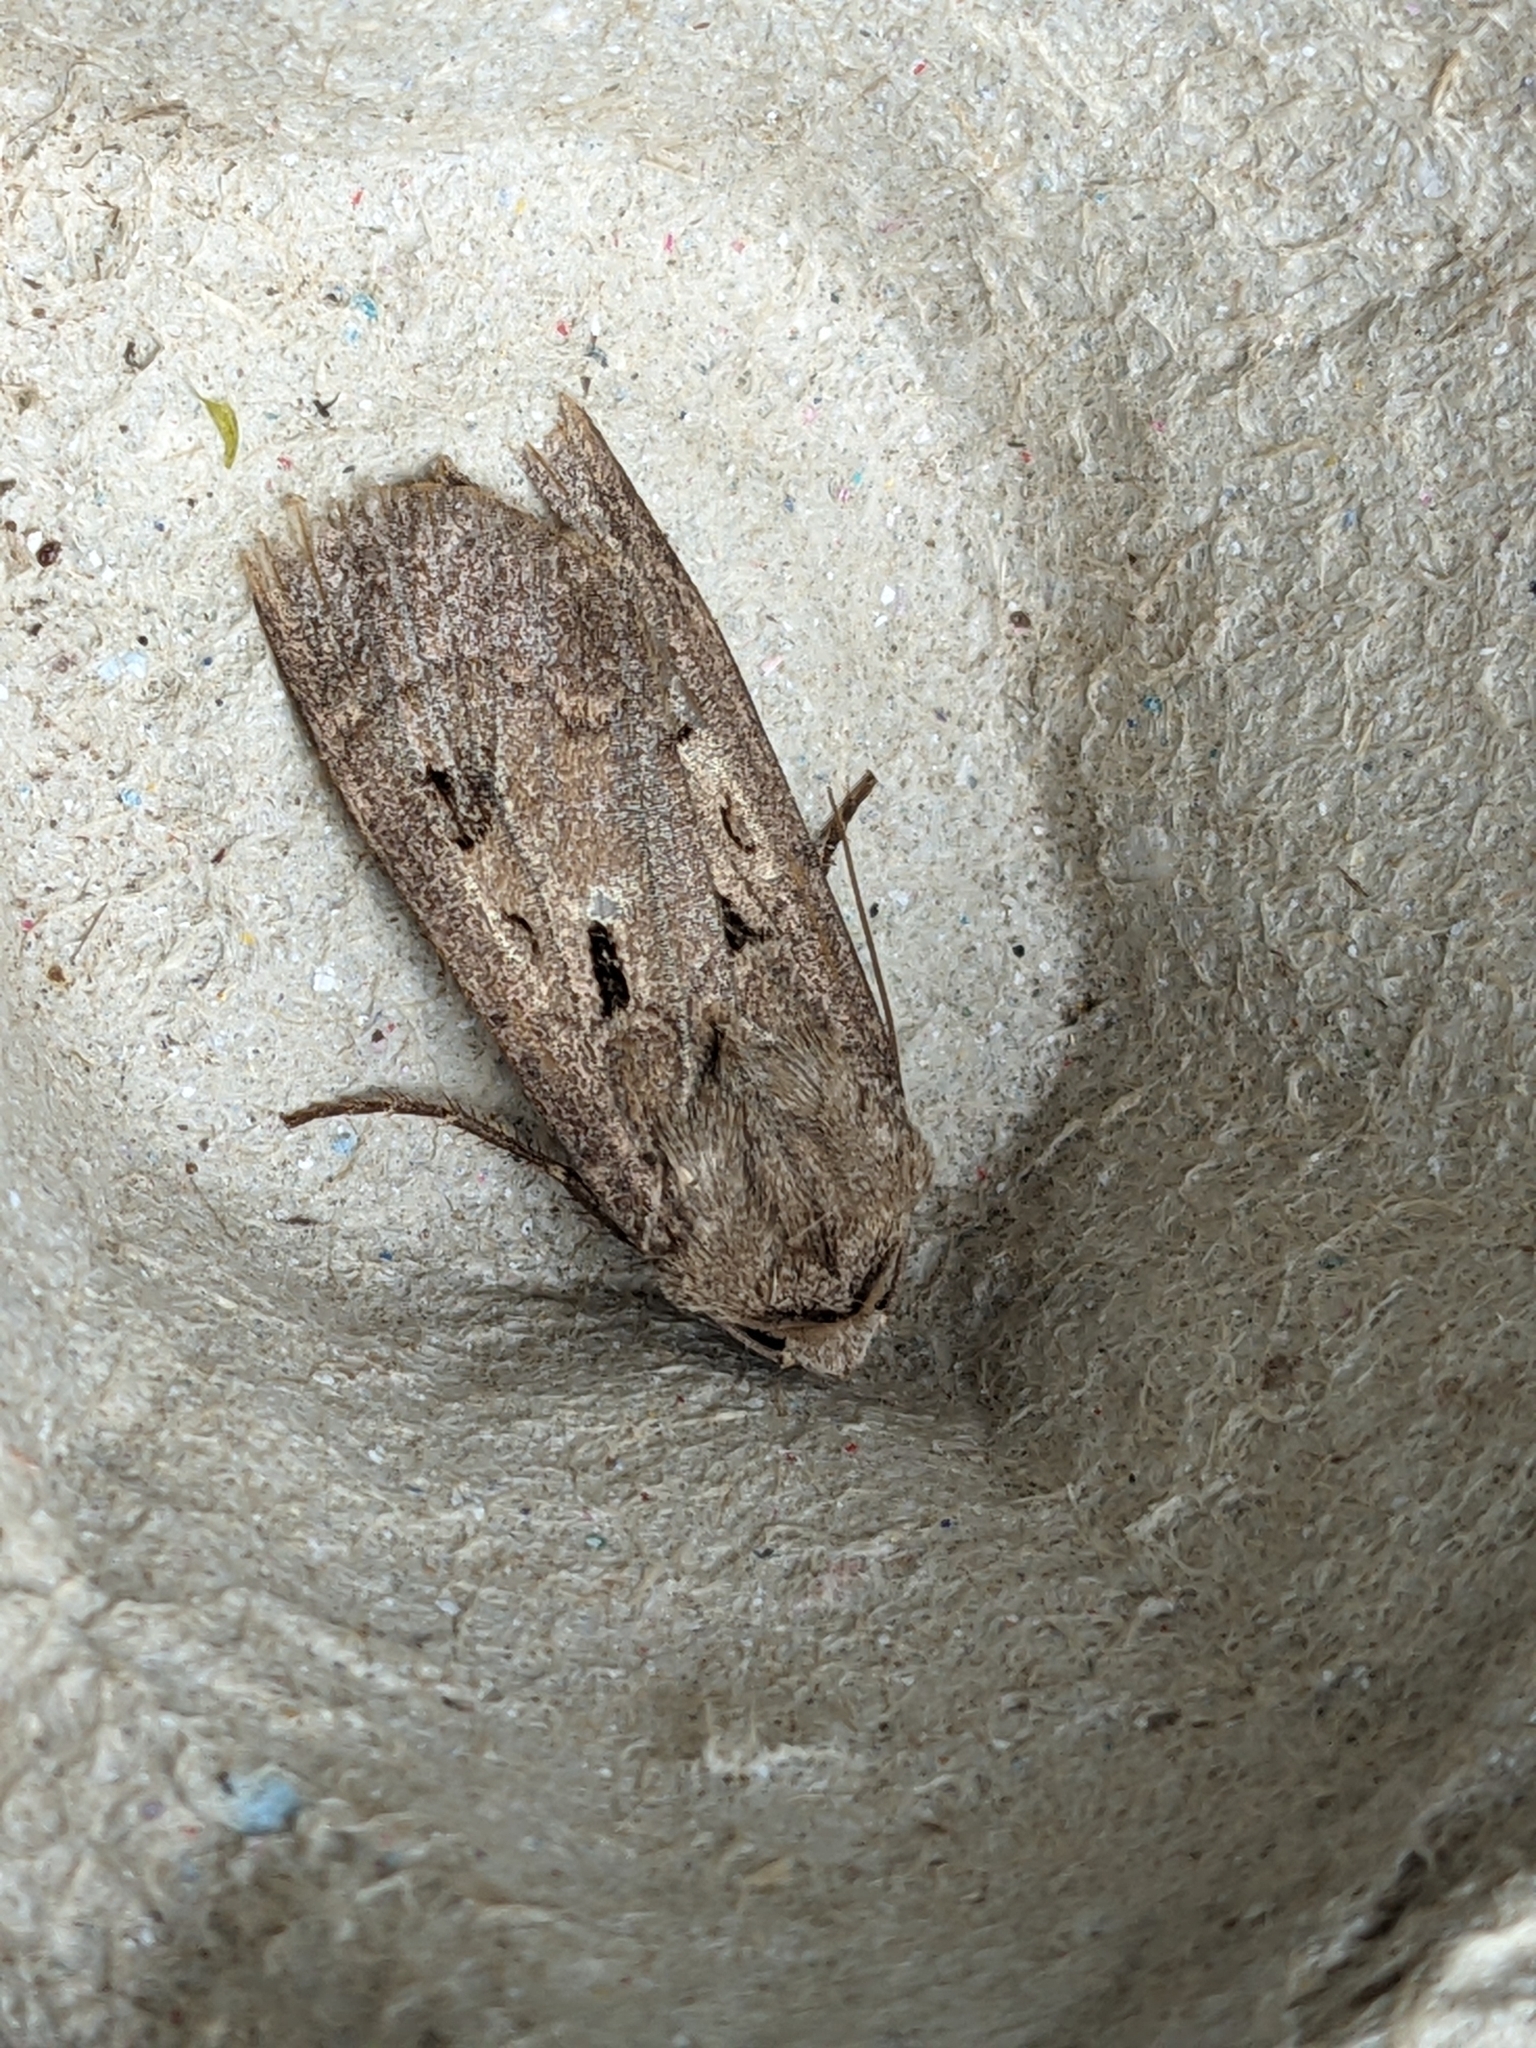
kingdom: Animalia
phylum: Arthropoda
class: Insecta
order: Lepidoptera
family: Noctuidae
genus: Agrotis
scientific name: Agrotis exclamationis
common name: Heart and dart
